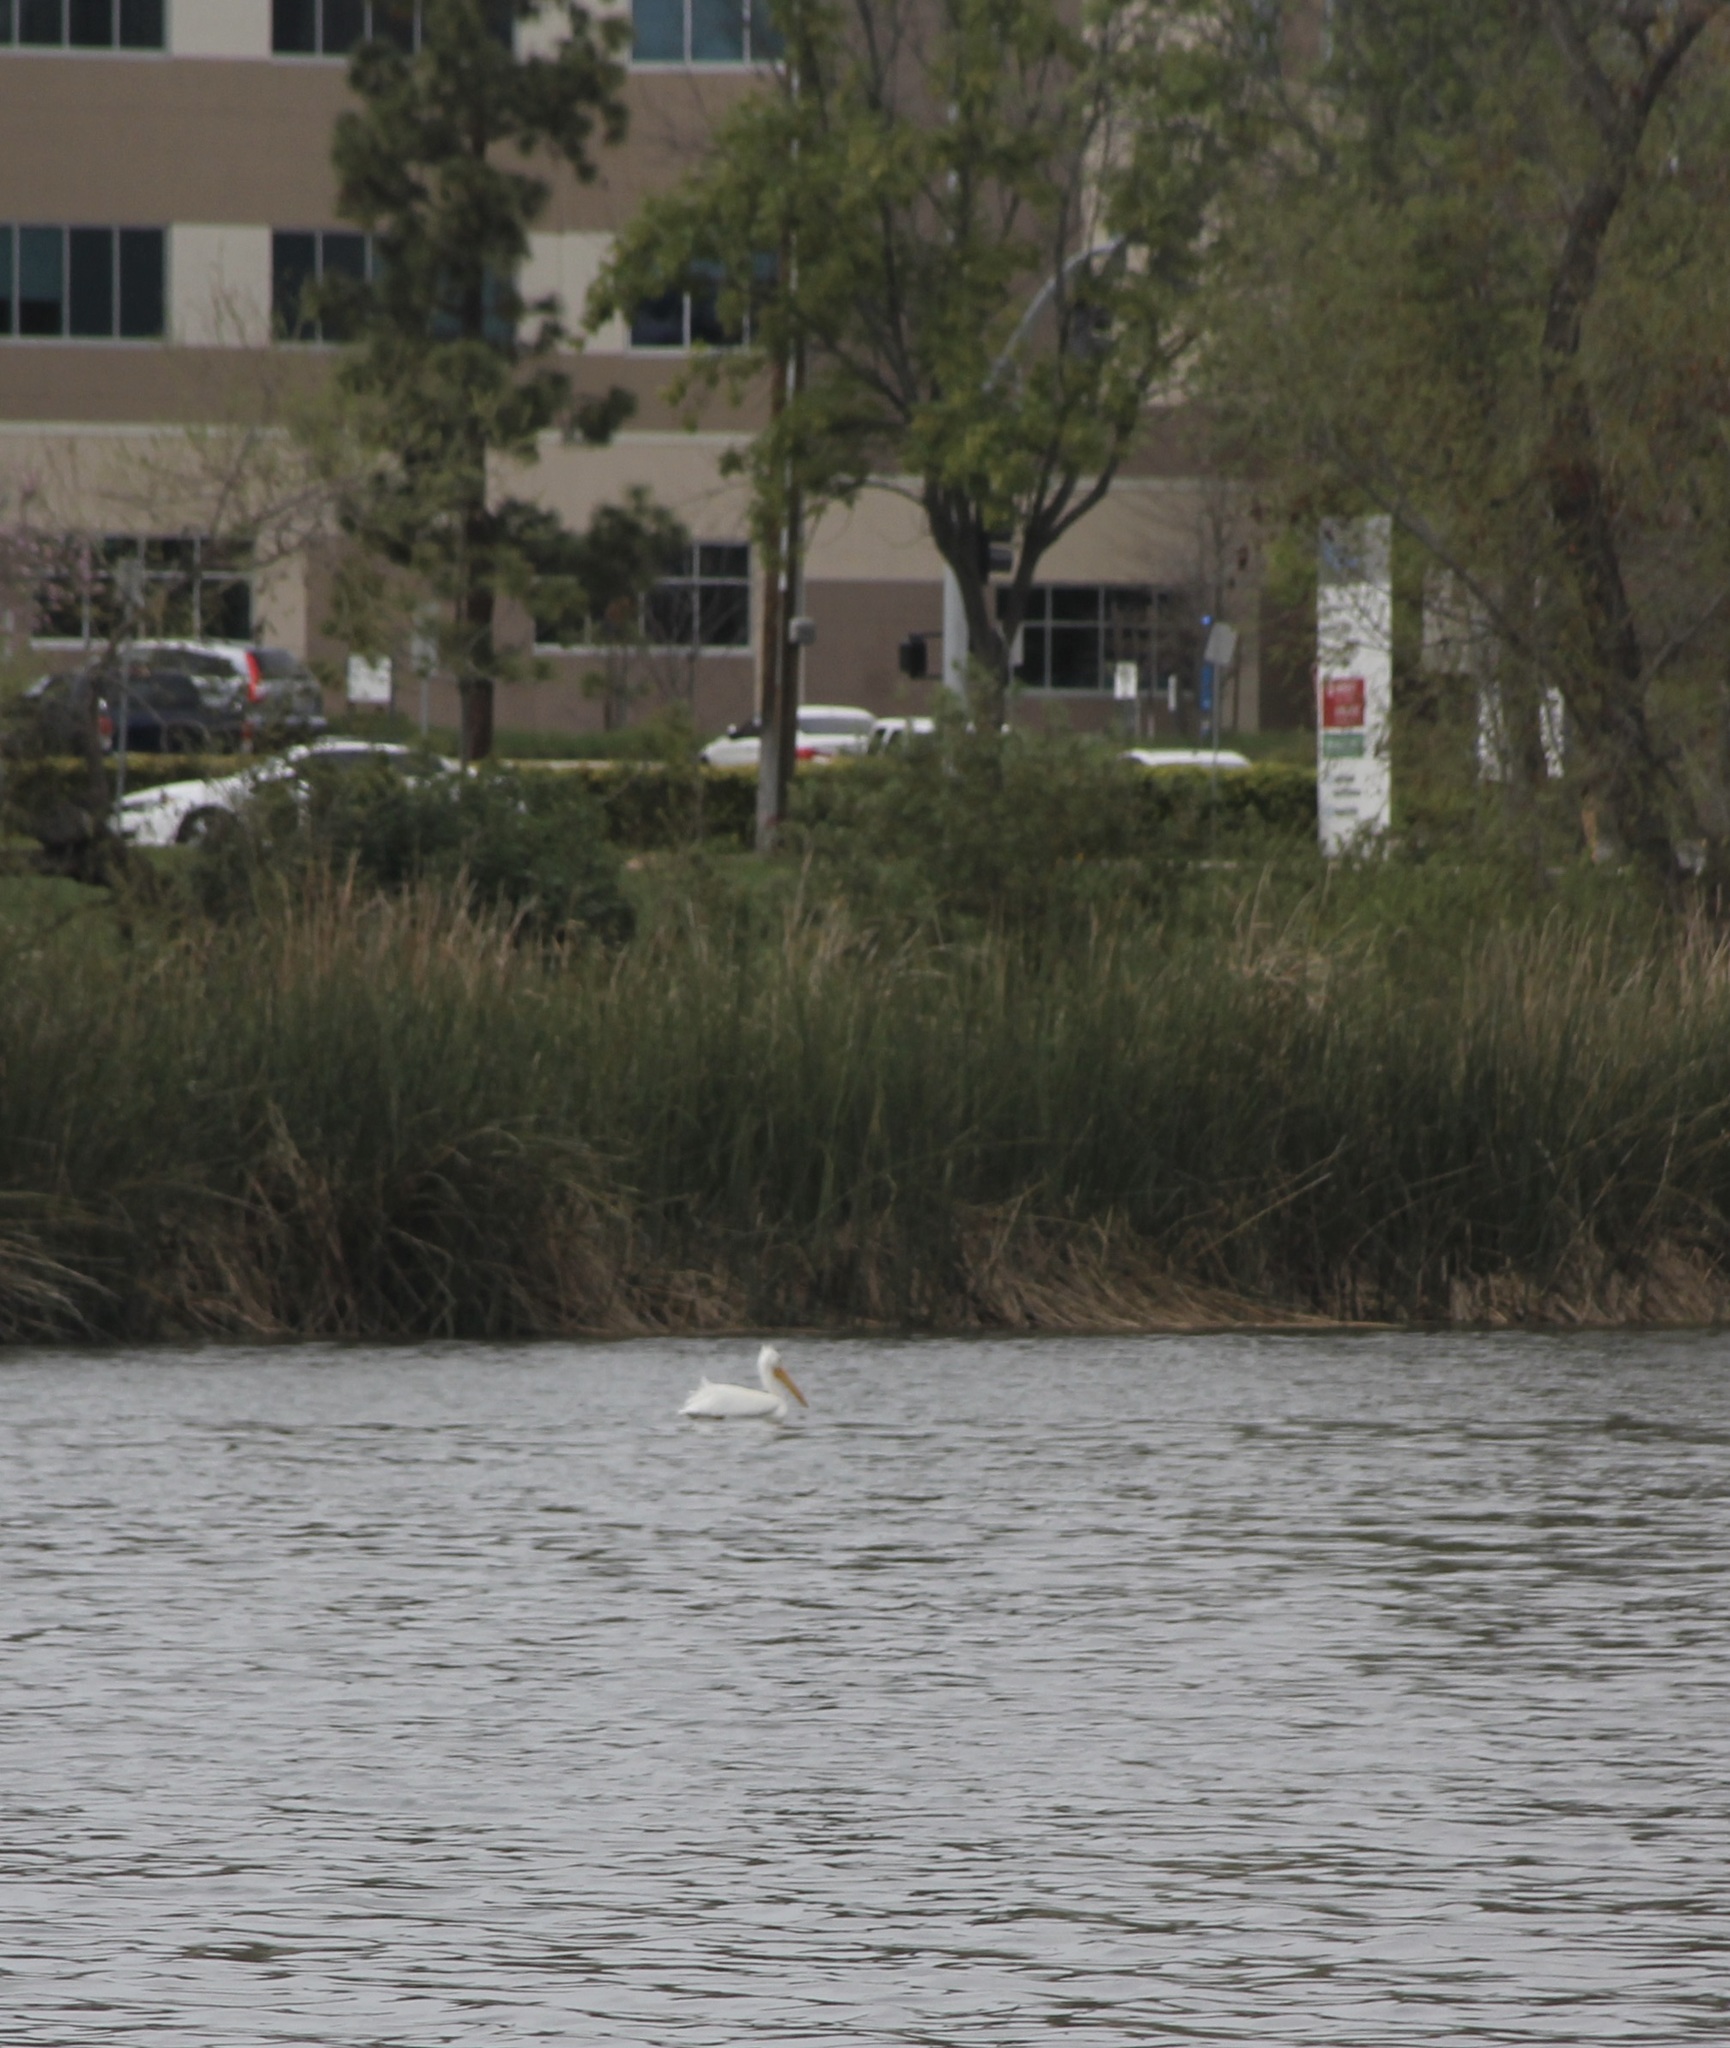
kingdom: Animalia
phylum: Chordata
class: Aves
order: Pelecaniformes
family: Pelecanidae
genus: Pelecanus
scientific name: Pelecanus erythrorhynchos
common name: American white pelican
